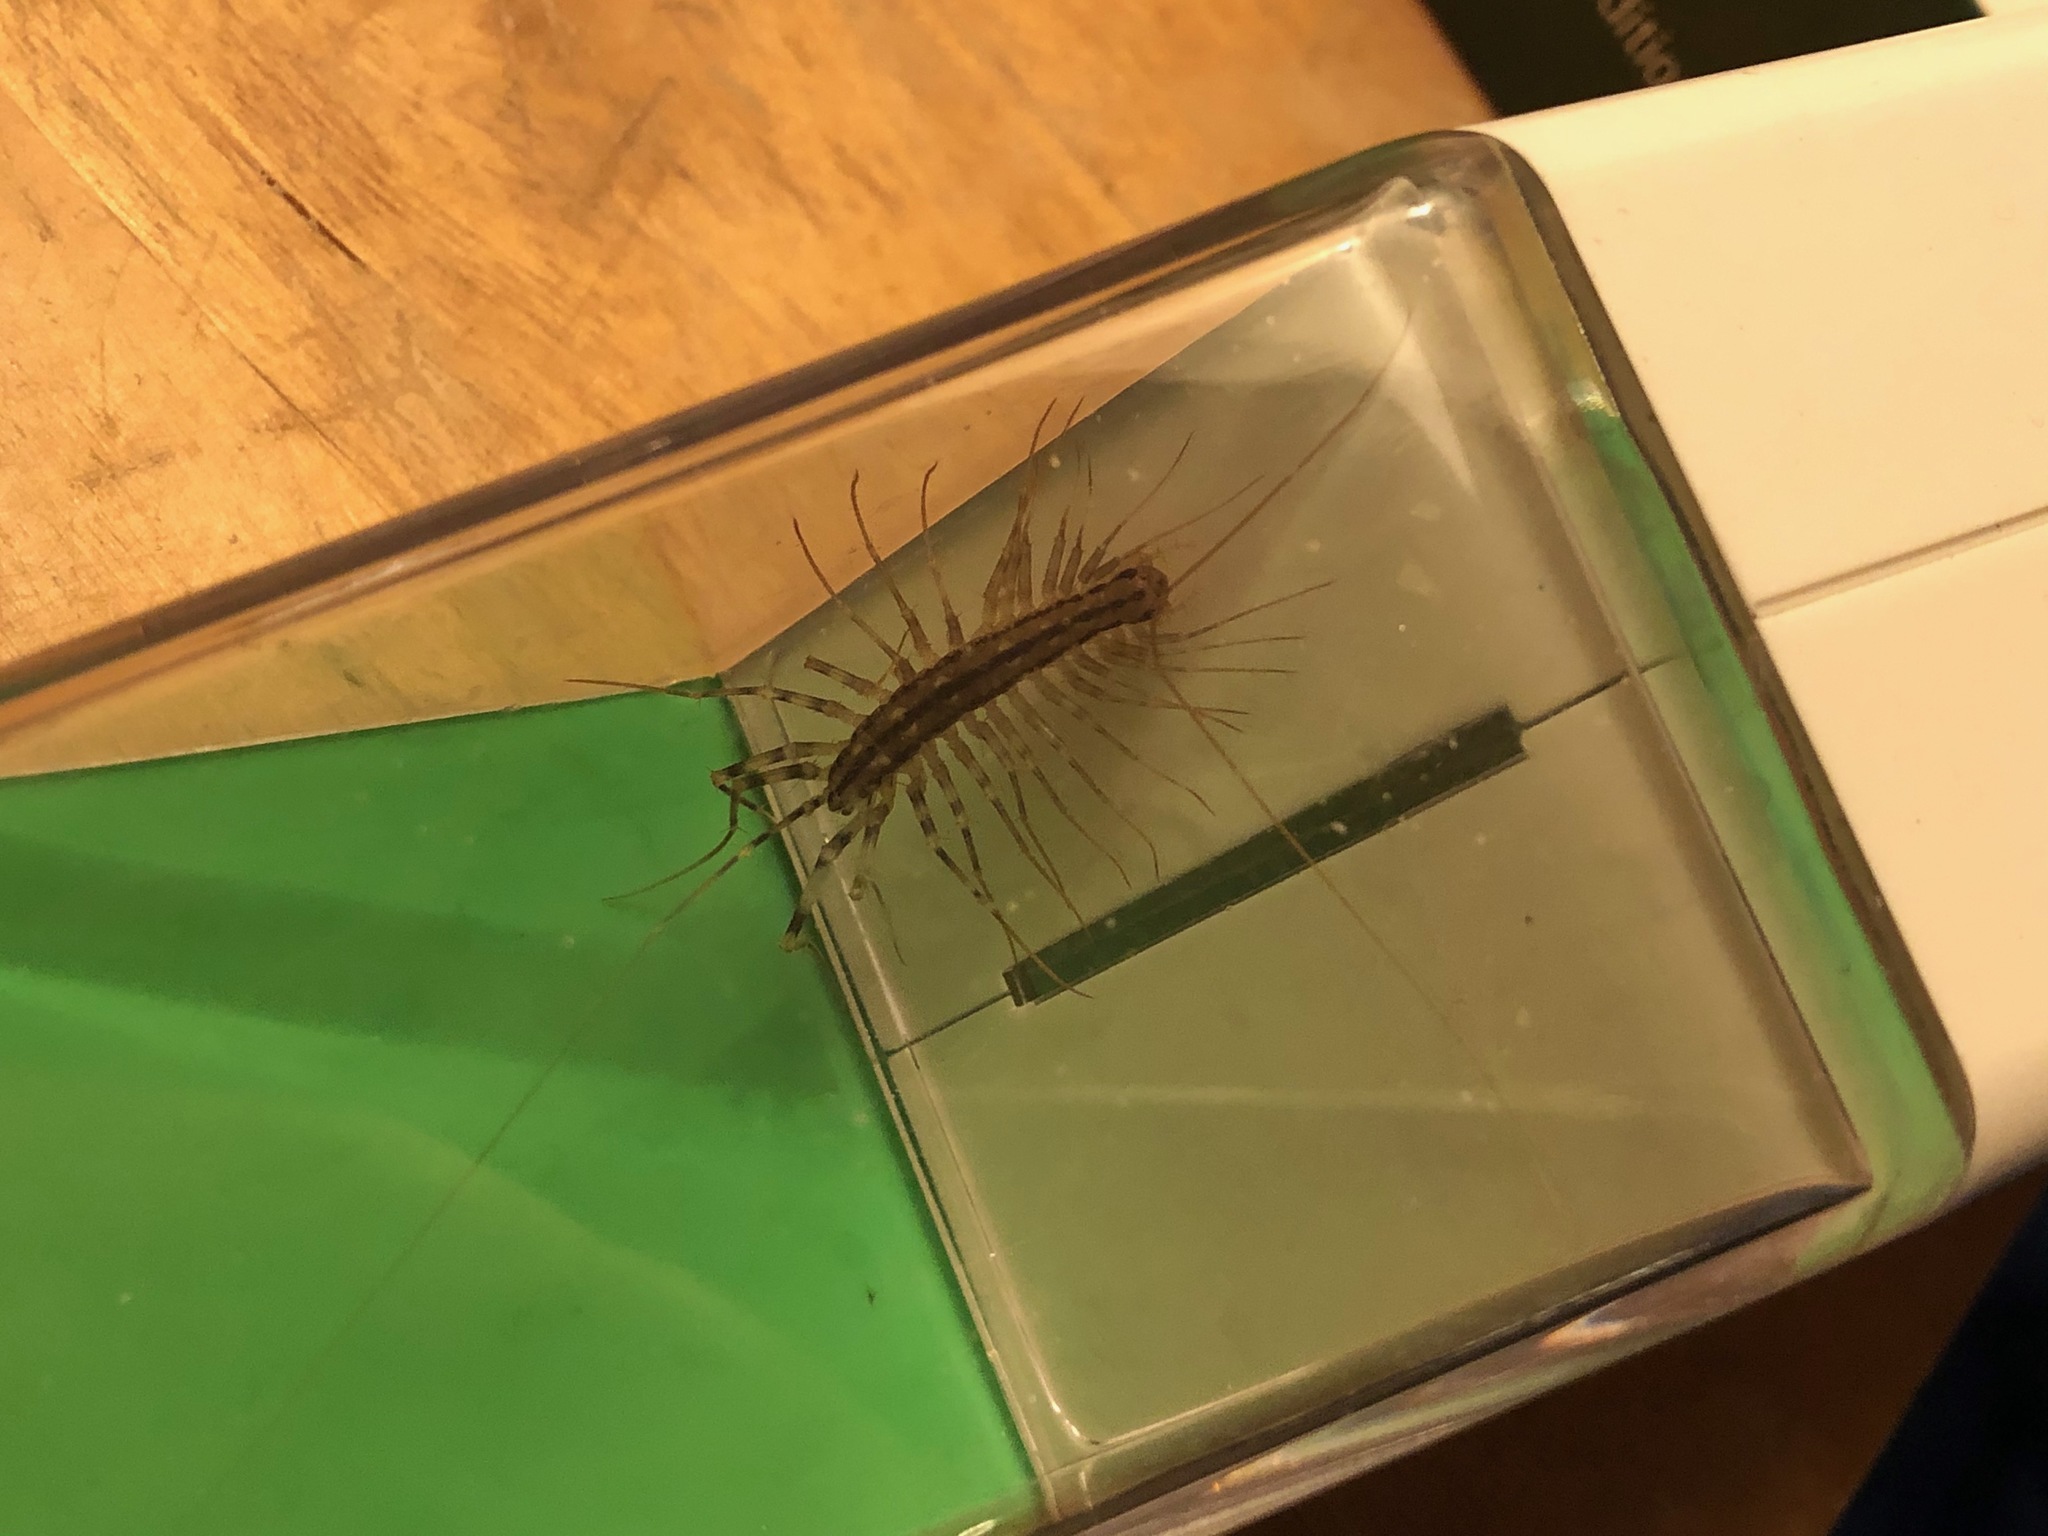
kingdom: Animalia
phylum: Arthropoda
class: Chilopoda
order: Scutigeromorpha
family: Scutigeridae
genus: Scutigera
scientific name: Scutigera coleoptrata
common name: House centipede
